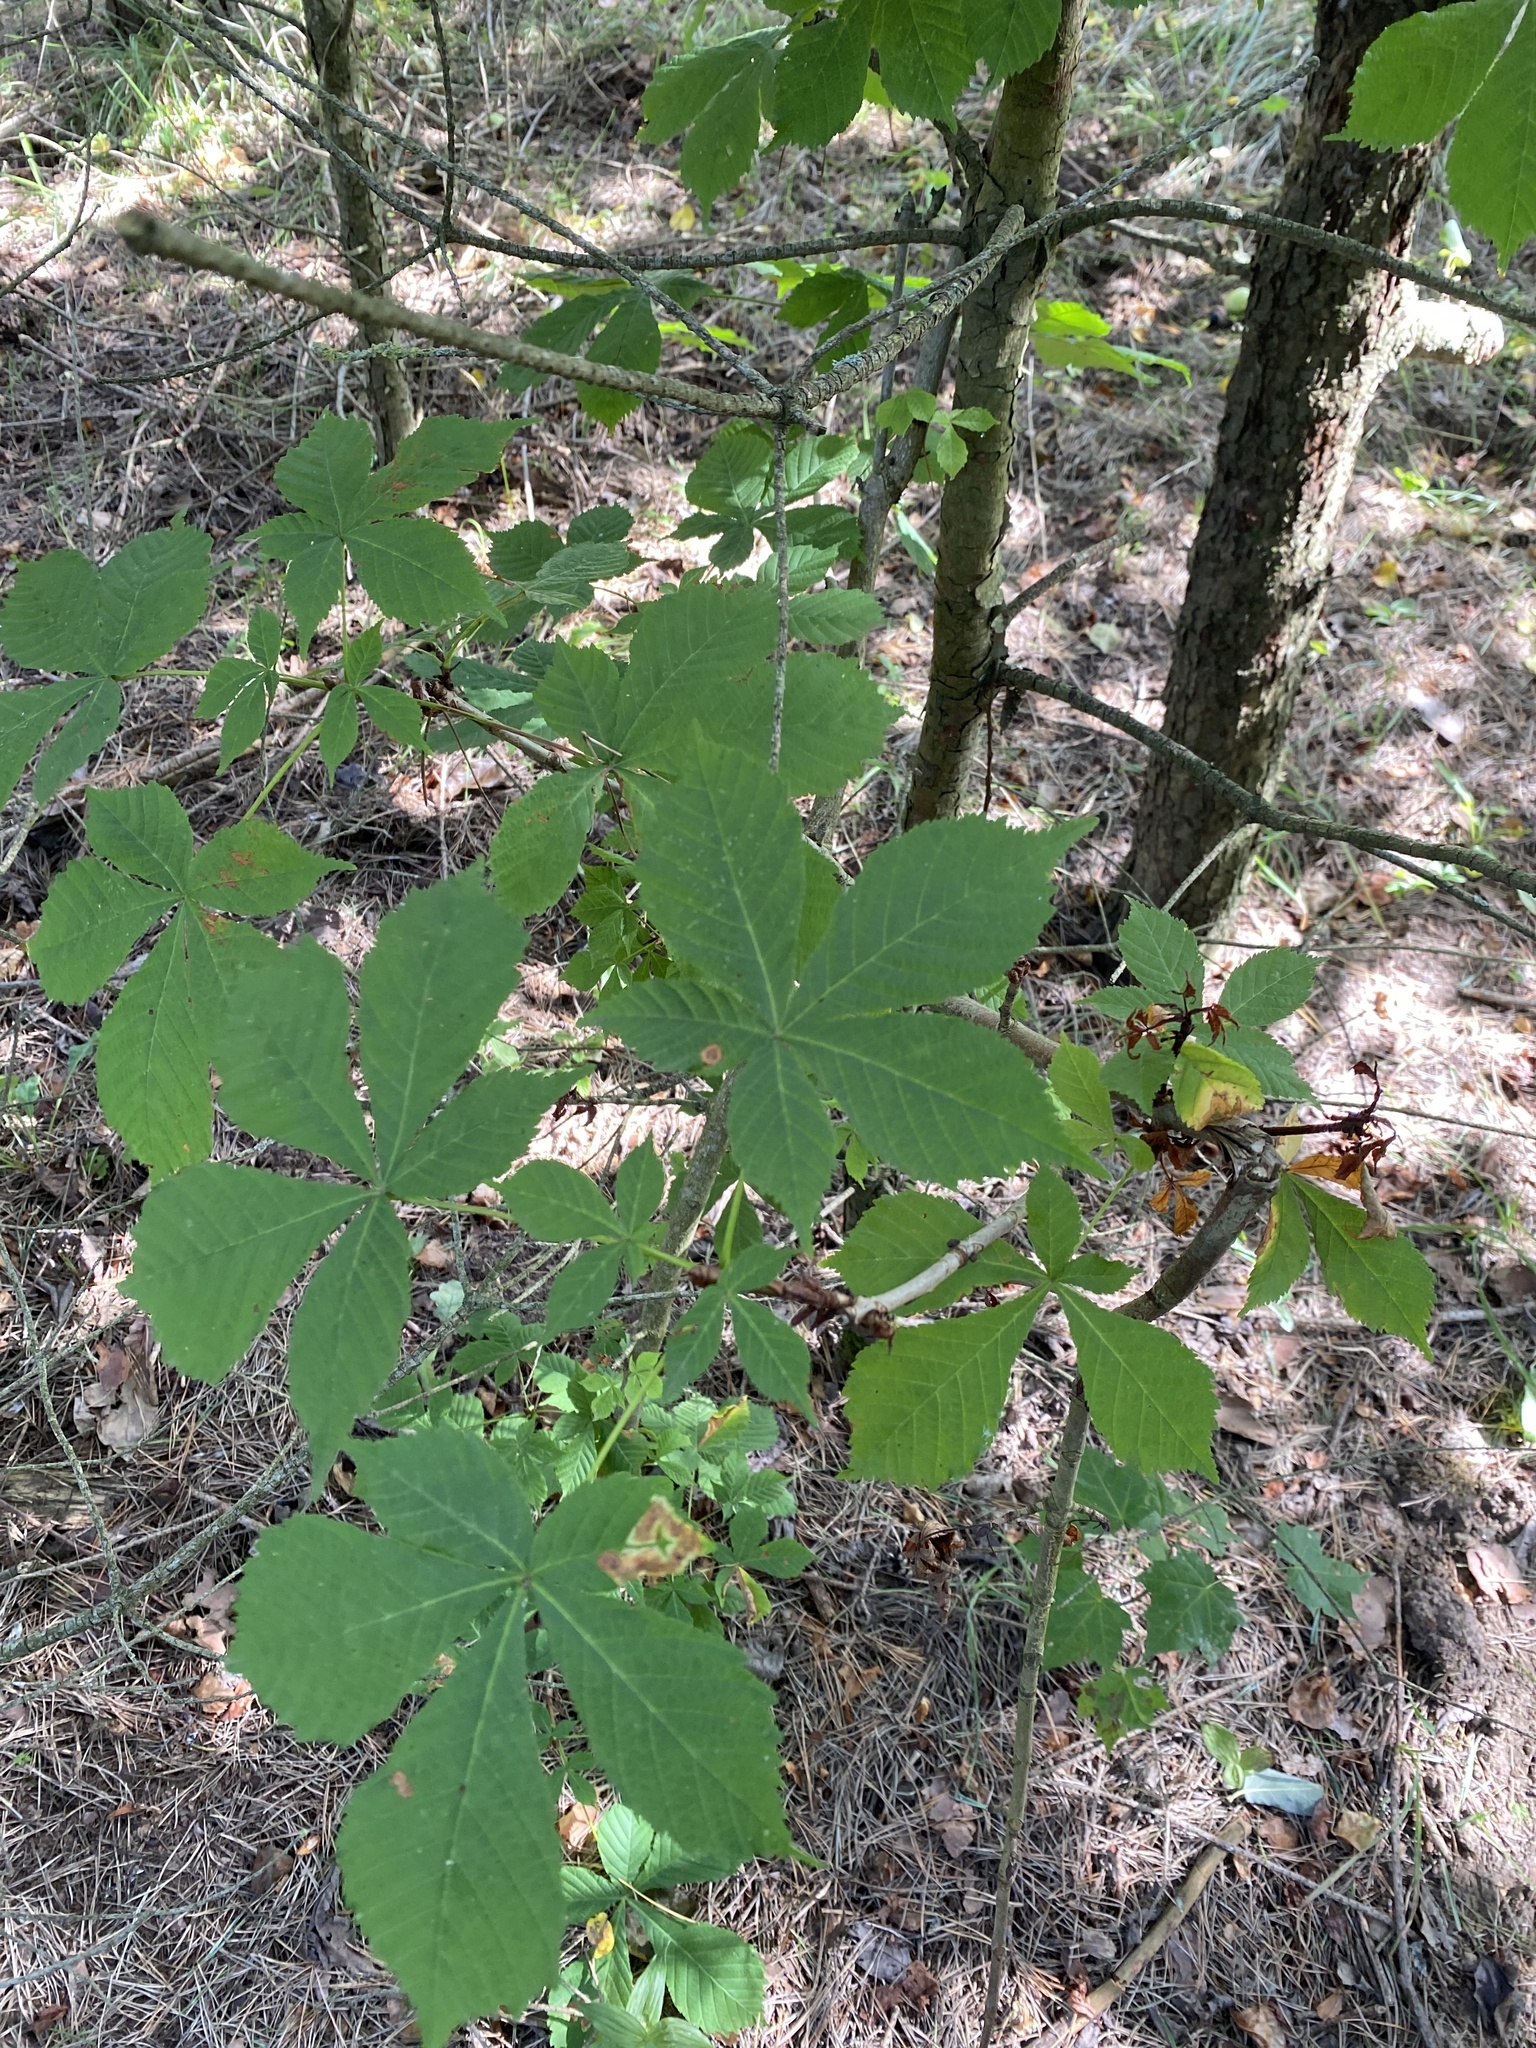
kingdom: Plantae
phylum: Tracheophyta
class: Magnoliopsida
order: Sapindales
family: Sapindaceae
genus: Aesculus
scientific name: Aesculus hippocastanum
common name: Horse-chestnut
